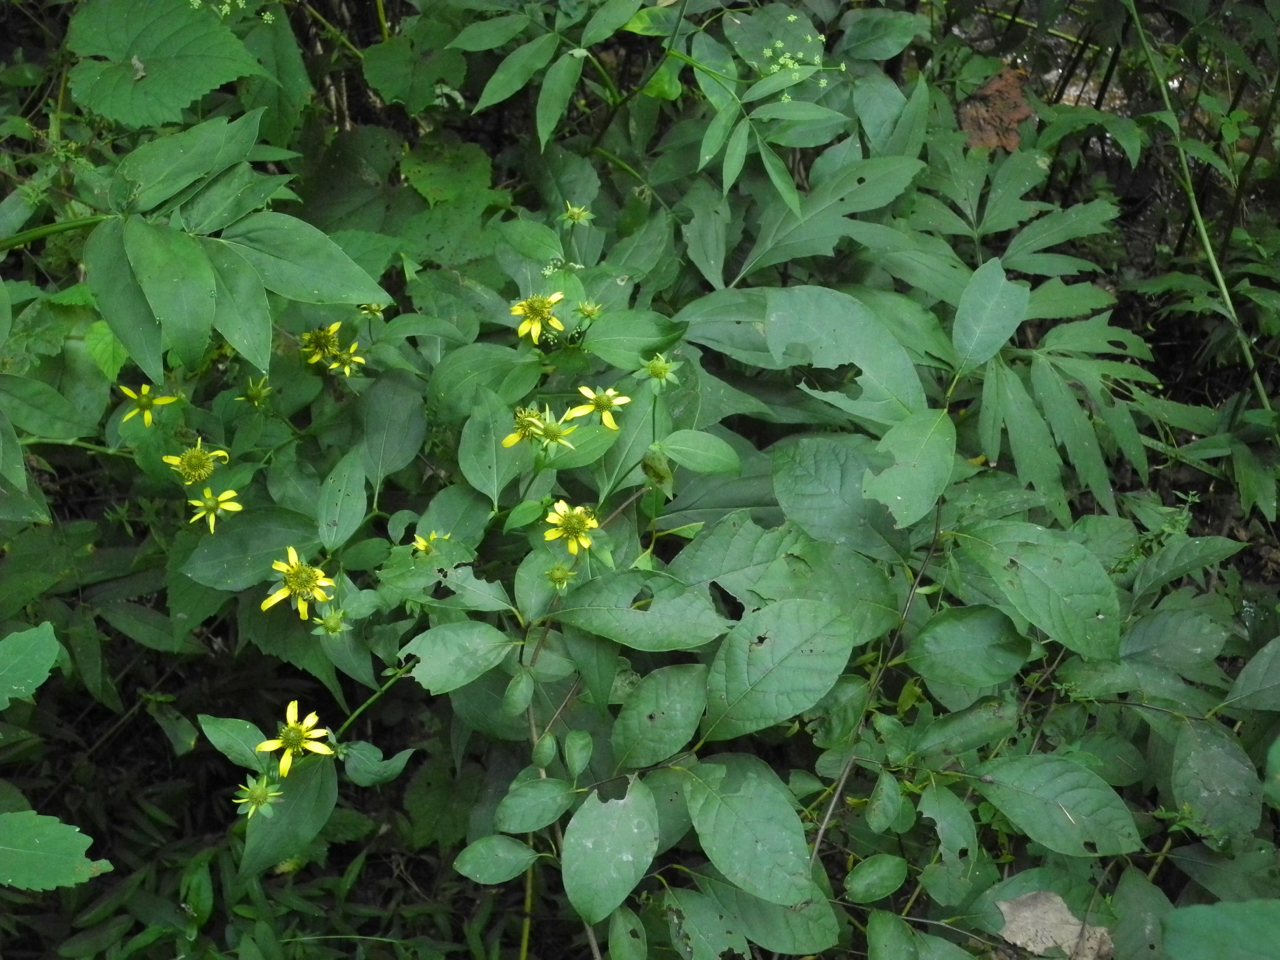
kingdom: Plantae
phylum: Tracheophyta
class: Magnoliopsida
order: Asterales
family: Asteraceae
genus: Rudbeckia
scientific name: Rudbeckia laciniata
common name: Coneflower
